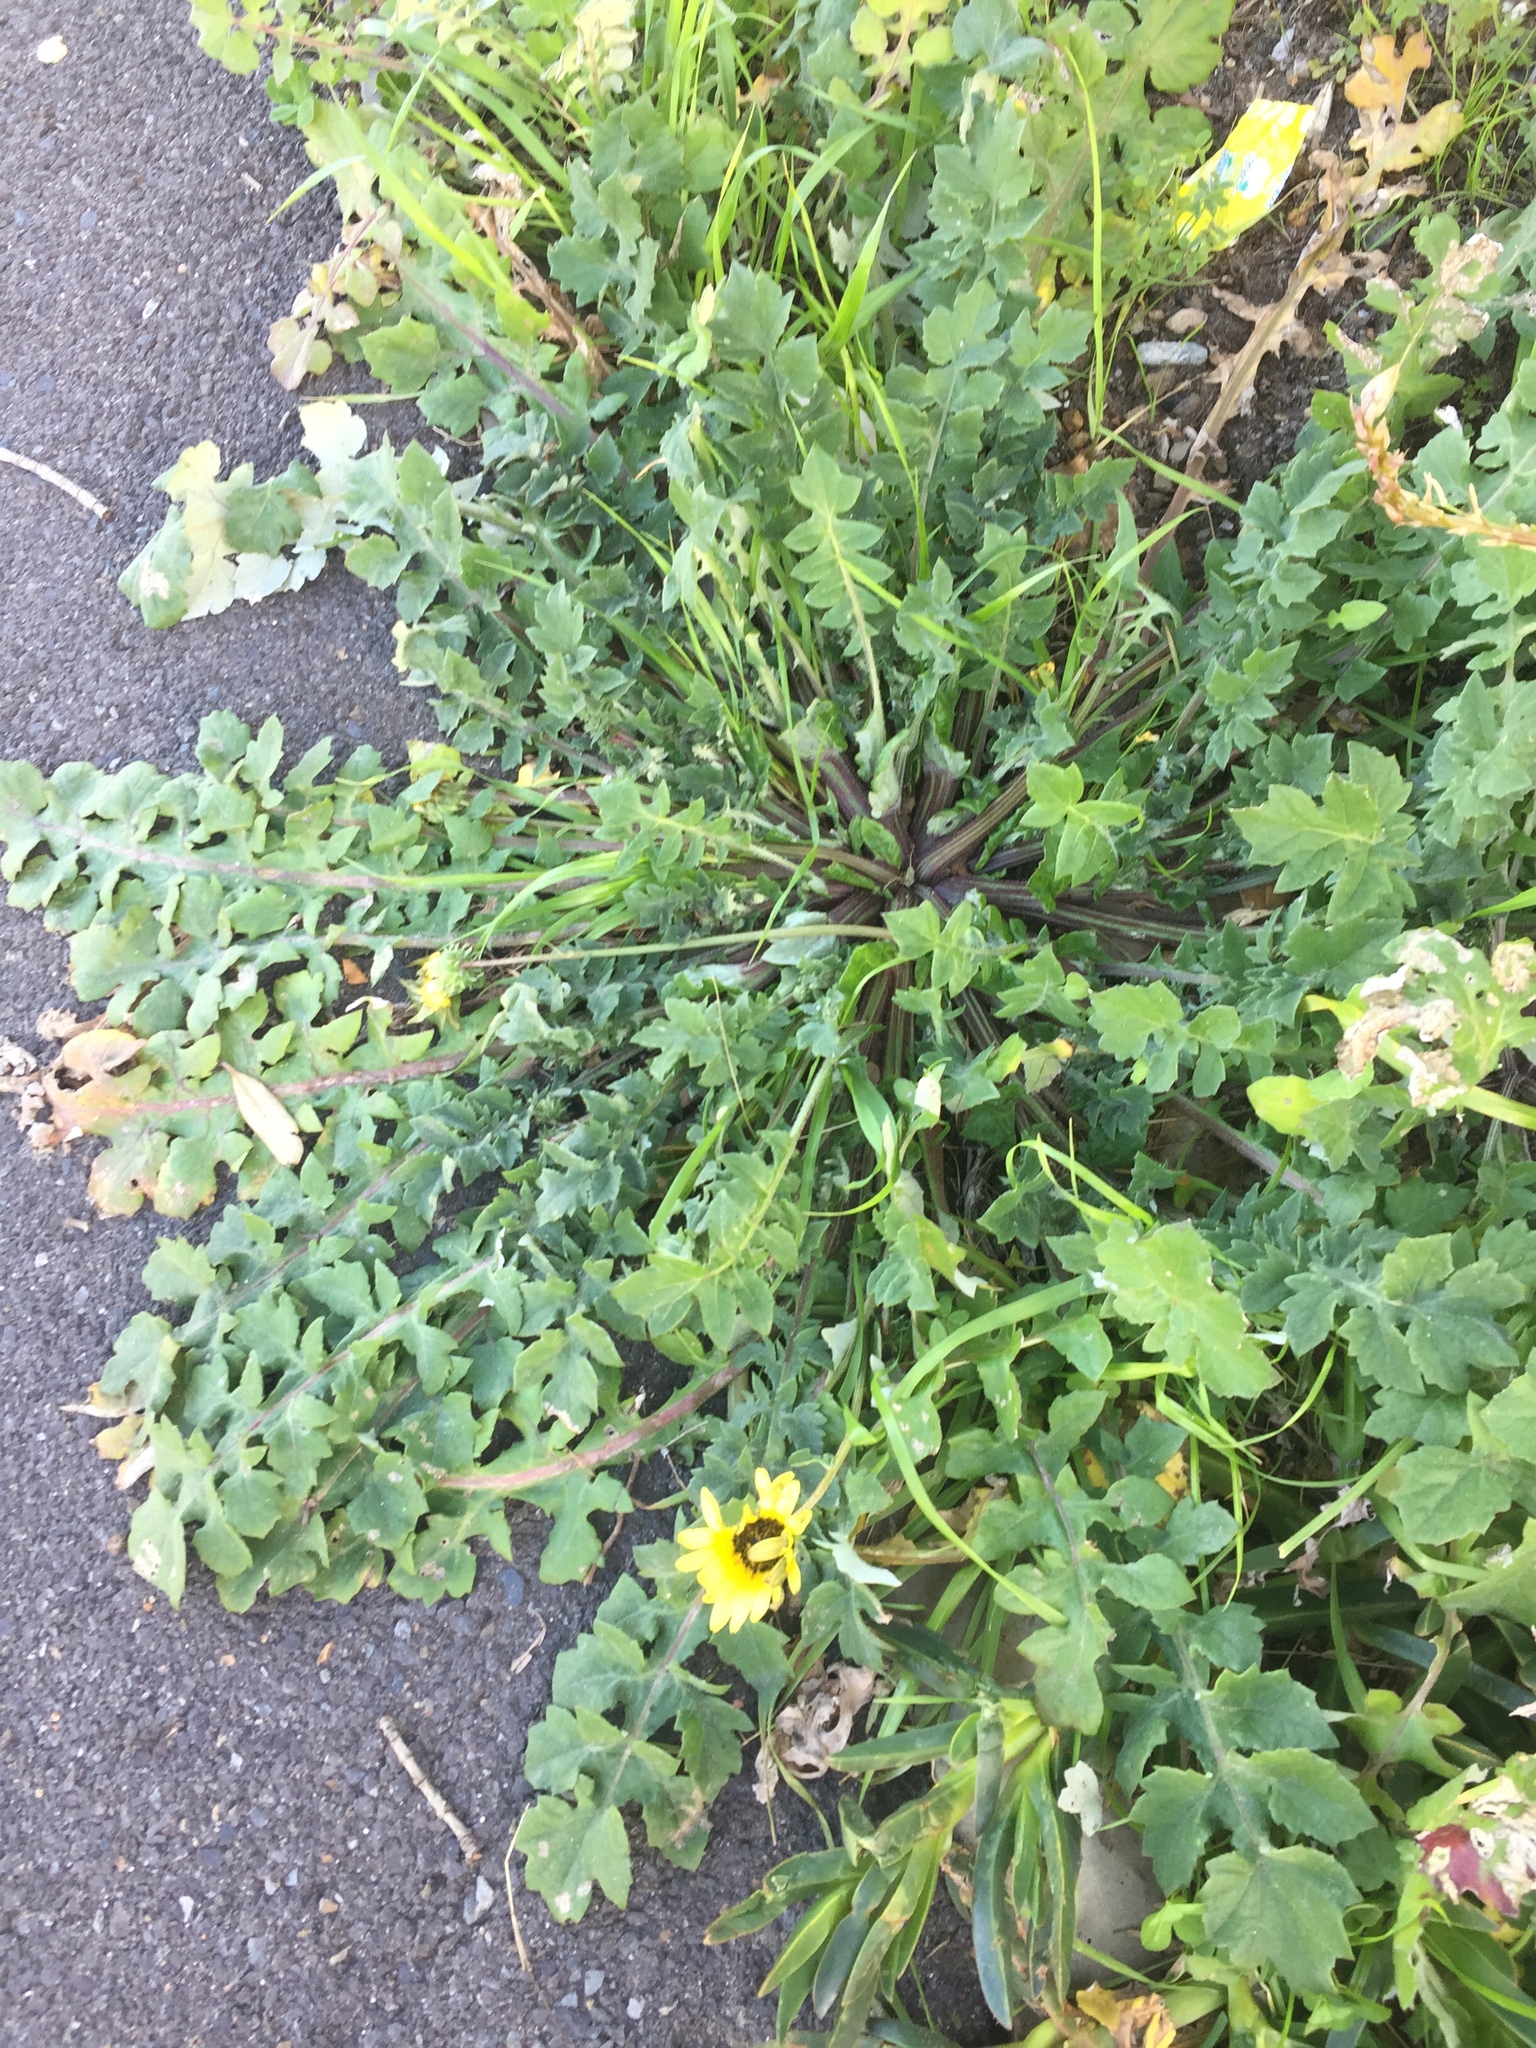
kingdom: Plantae
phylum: Tracheophyta
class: Magnoliopsida
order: Asterales
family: Asteraceae
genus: Arctotheca
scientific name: Arctotheca calendula
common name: Capeweed
